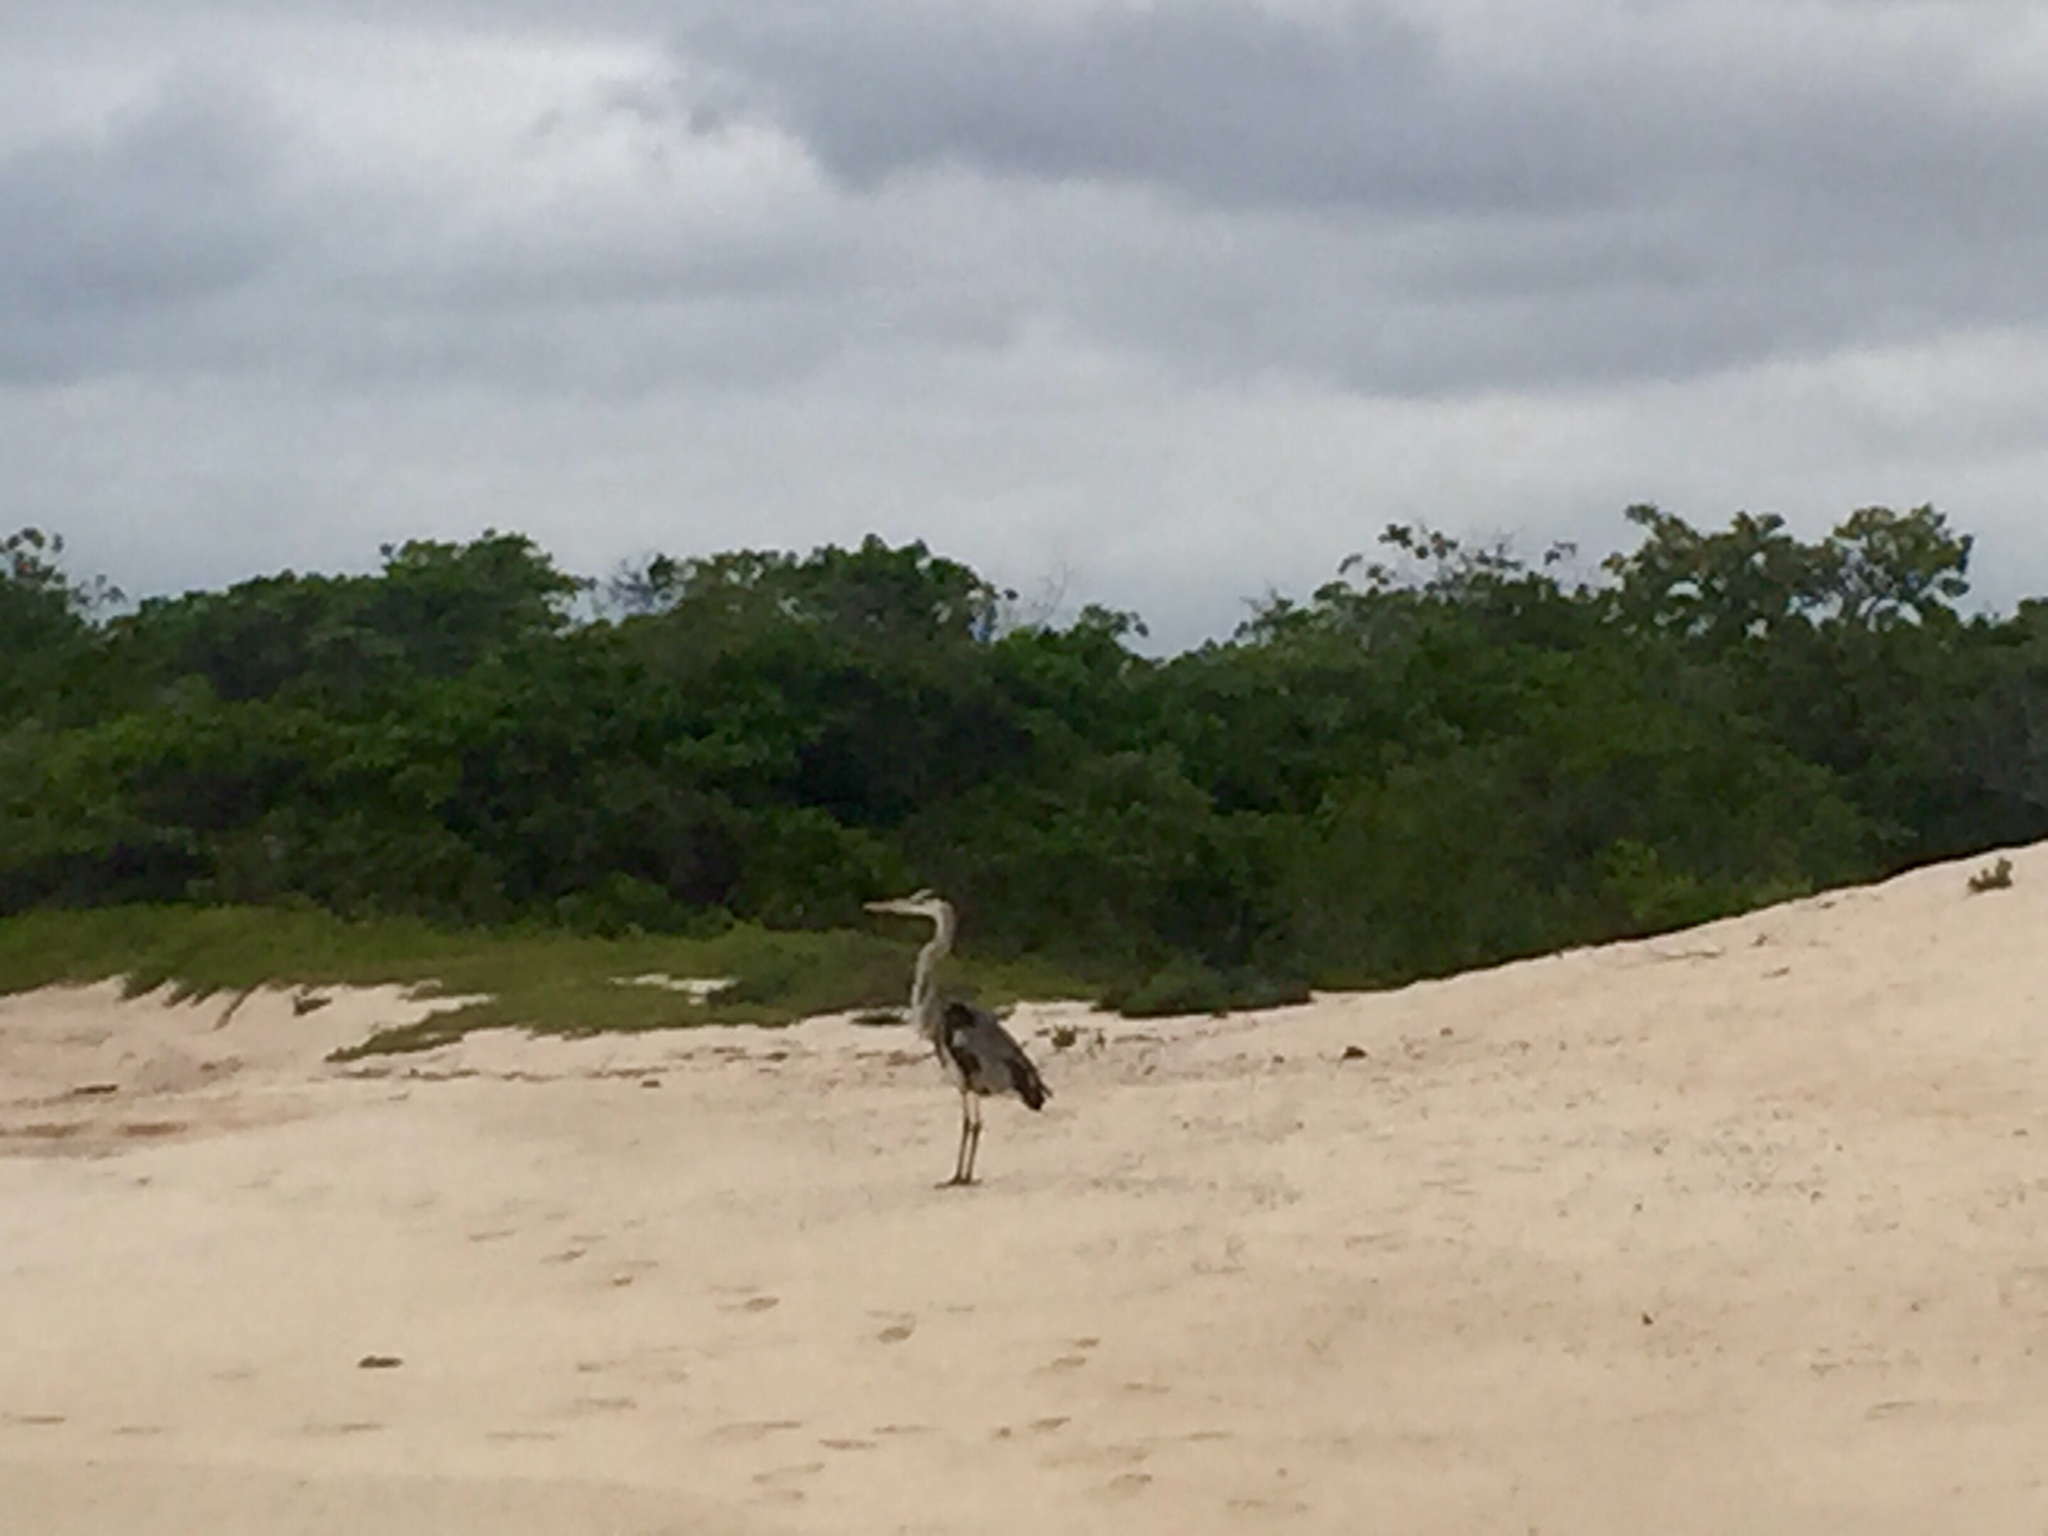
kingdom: Animalia
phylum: Chordata
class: Aves
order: Pelecaniformes
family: Ardeidae
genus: Ardea
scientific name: Ardea herodias
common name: Great blue heron
